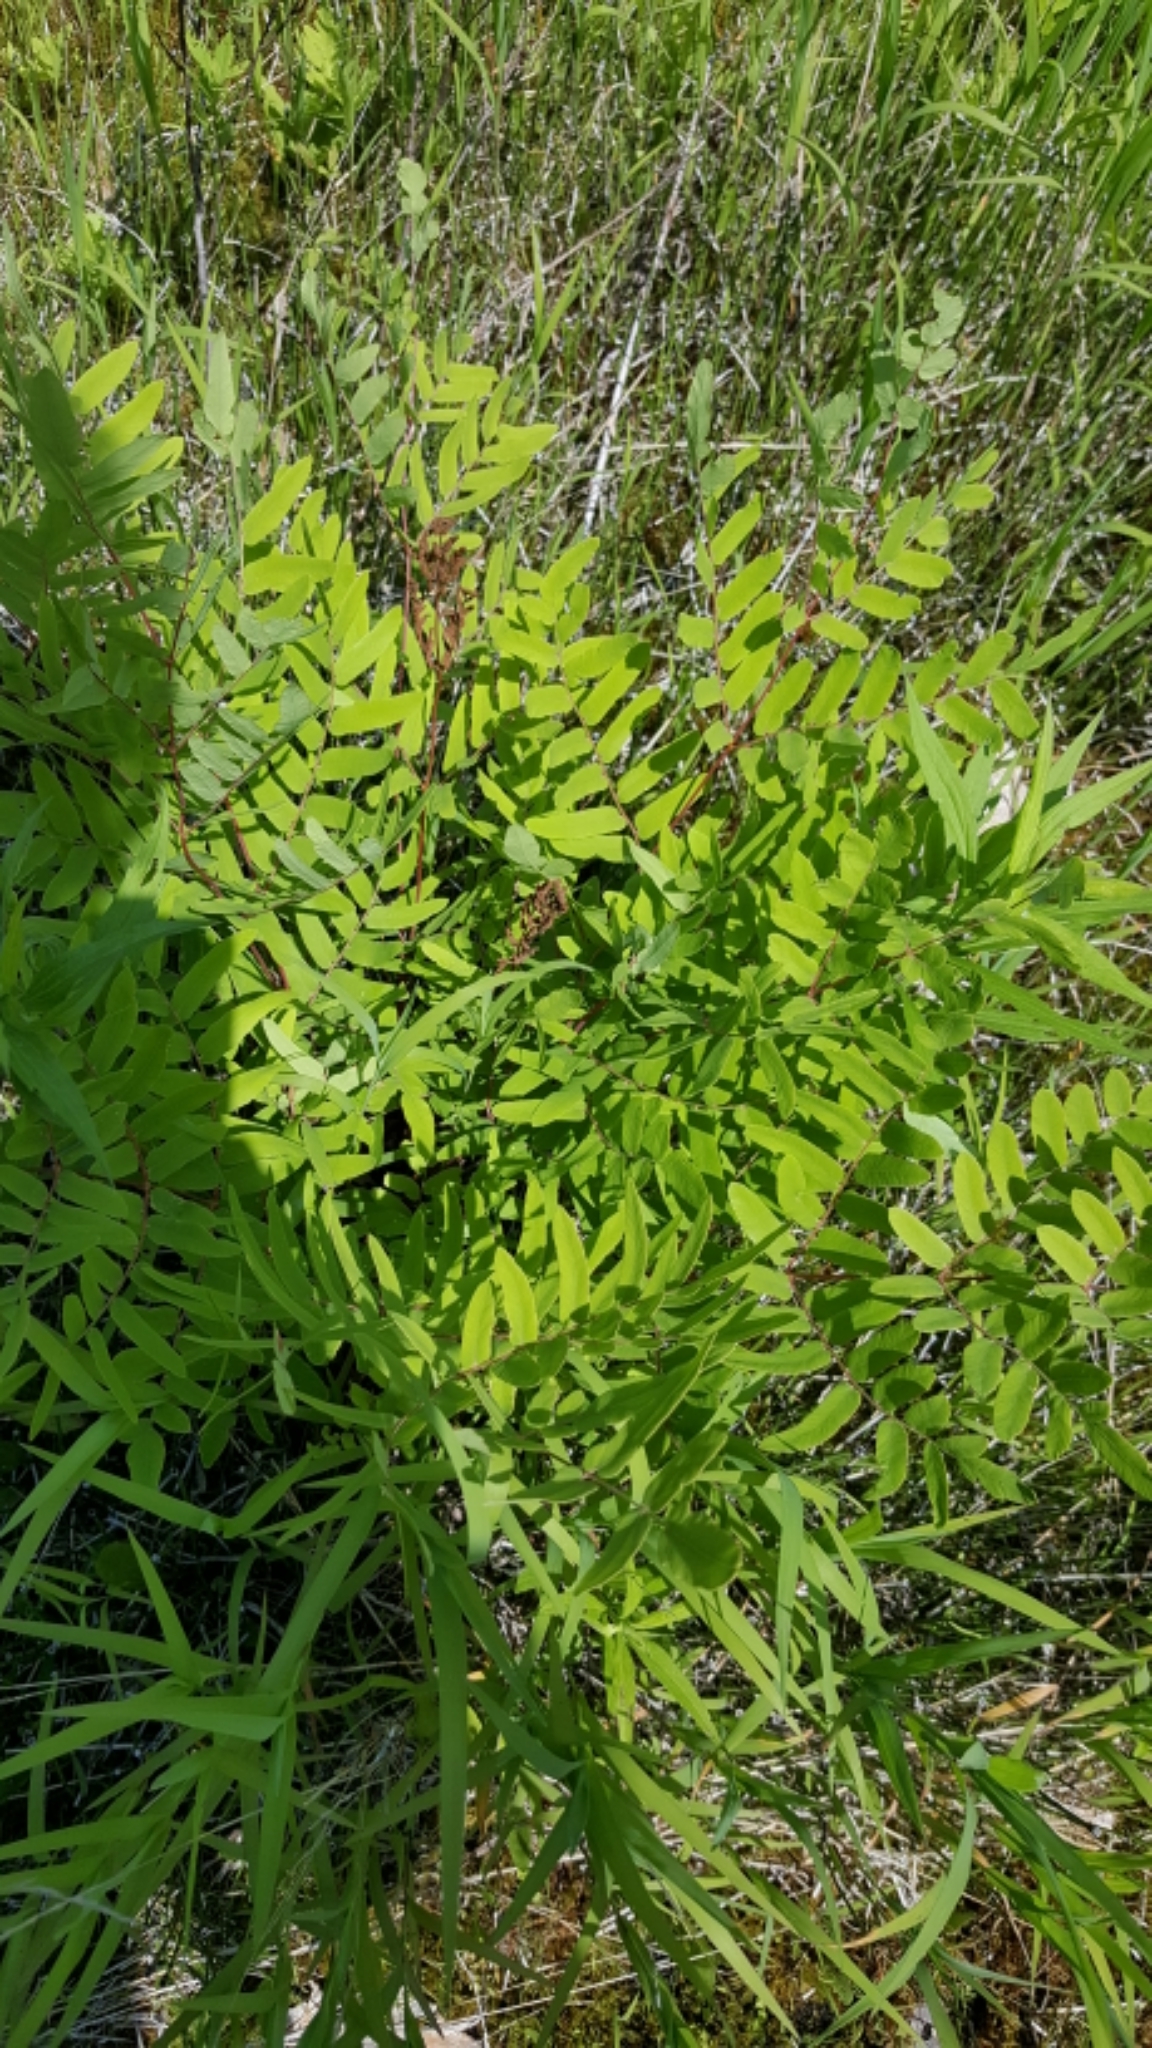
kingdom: Plantae
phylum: Tracheophyta
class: Polypodiopsida
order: Osmundales
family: Osmundaceae
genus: Osmunda
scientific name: Osmunda spectabilis
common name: American royal fern
